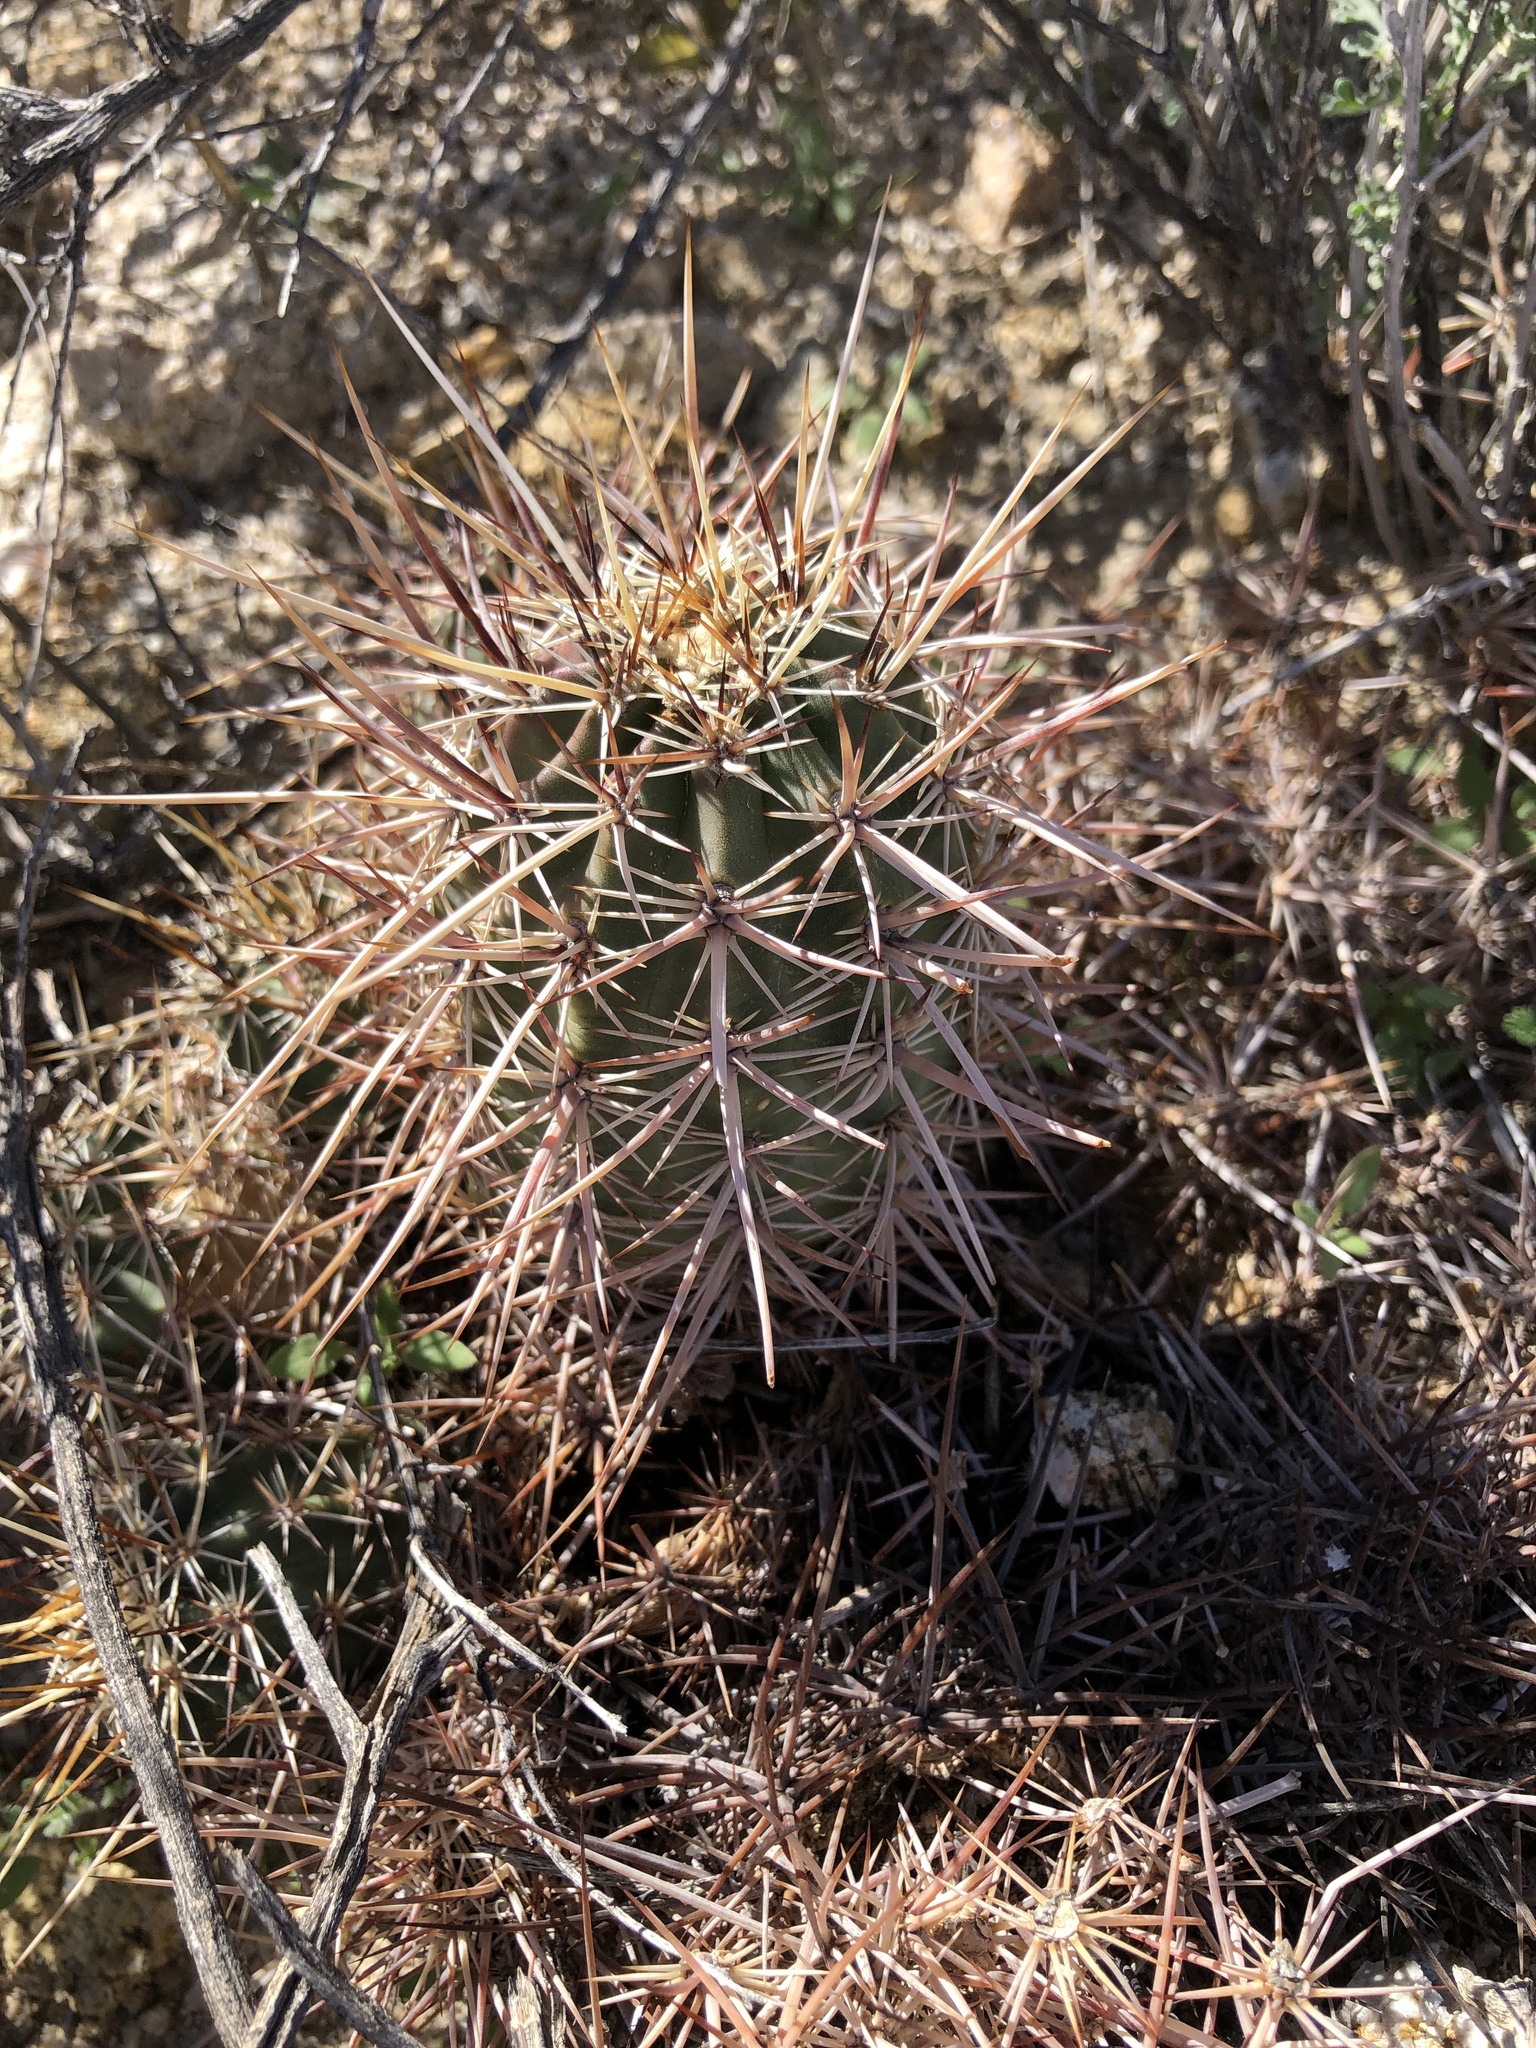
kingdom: Plantae
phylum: Tracheophyta
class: Magnoliopsida
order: Caryophyllales
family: Cactaceae
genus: Echinocereus
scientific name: Echinocereus engelmannii
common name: Engelmann's hedgehog cactus
